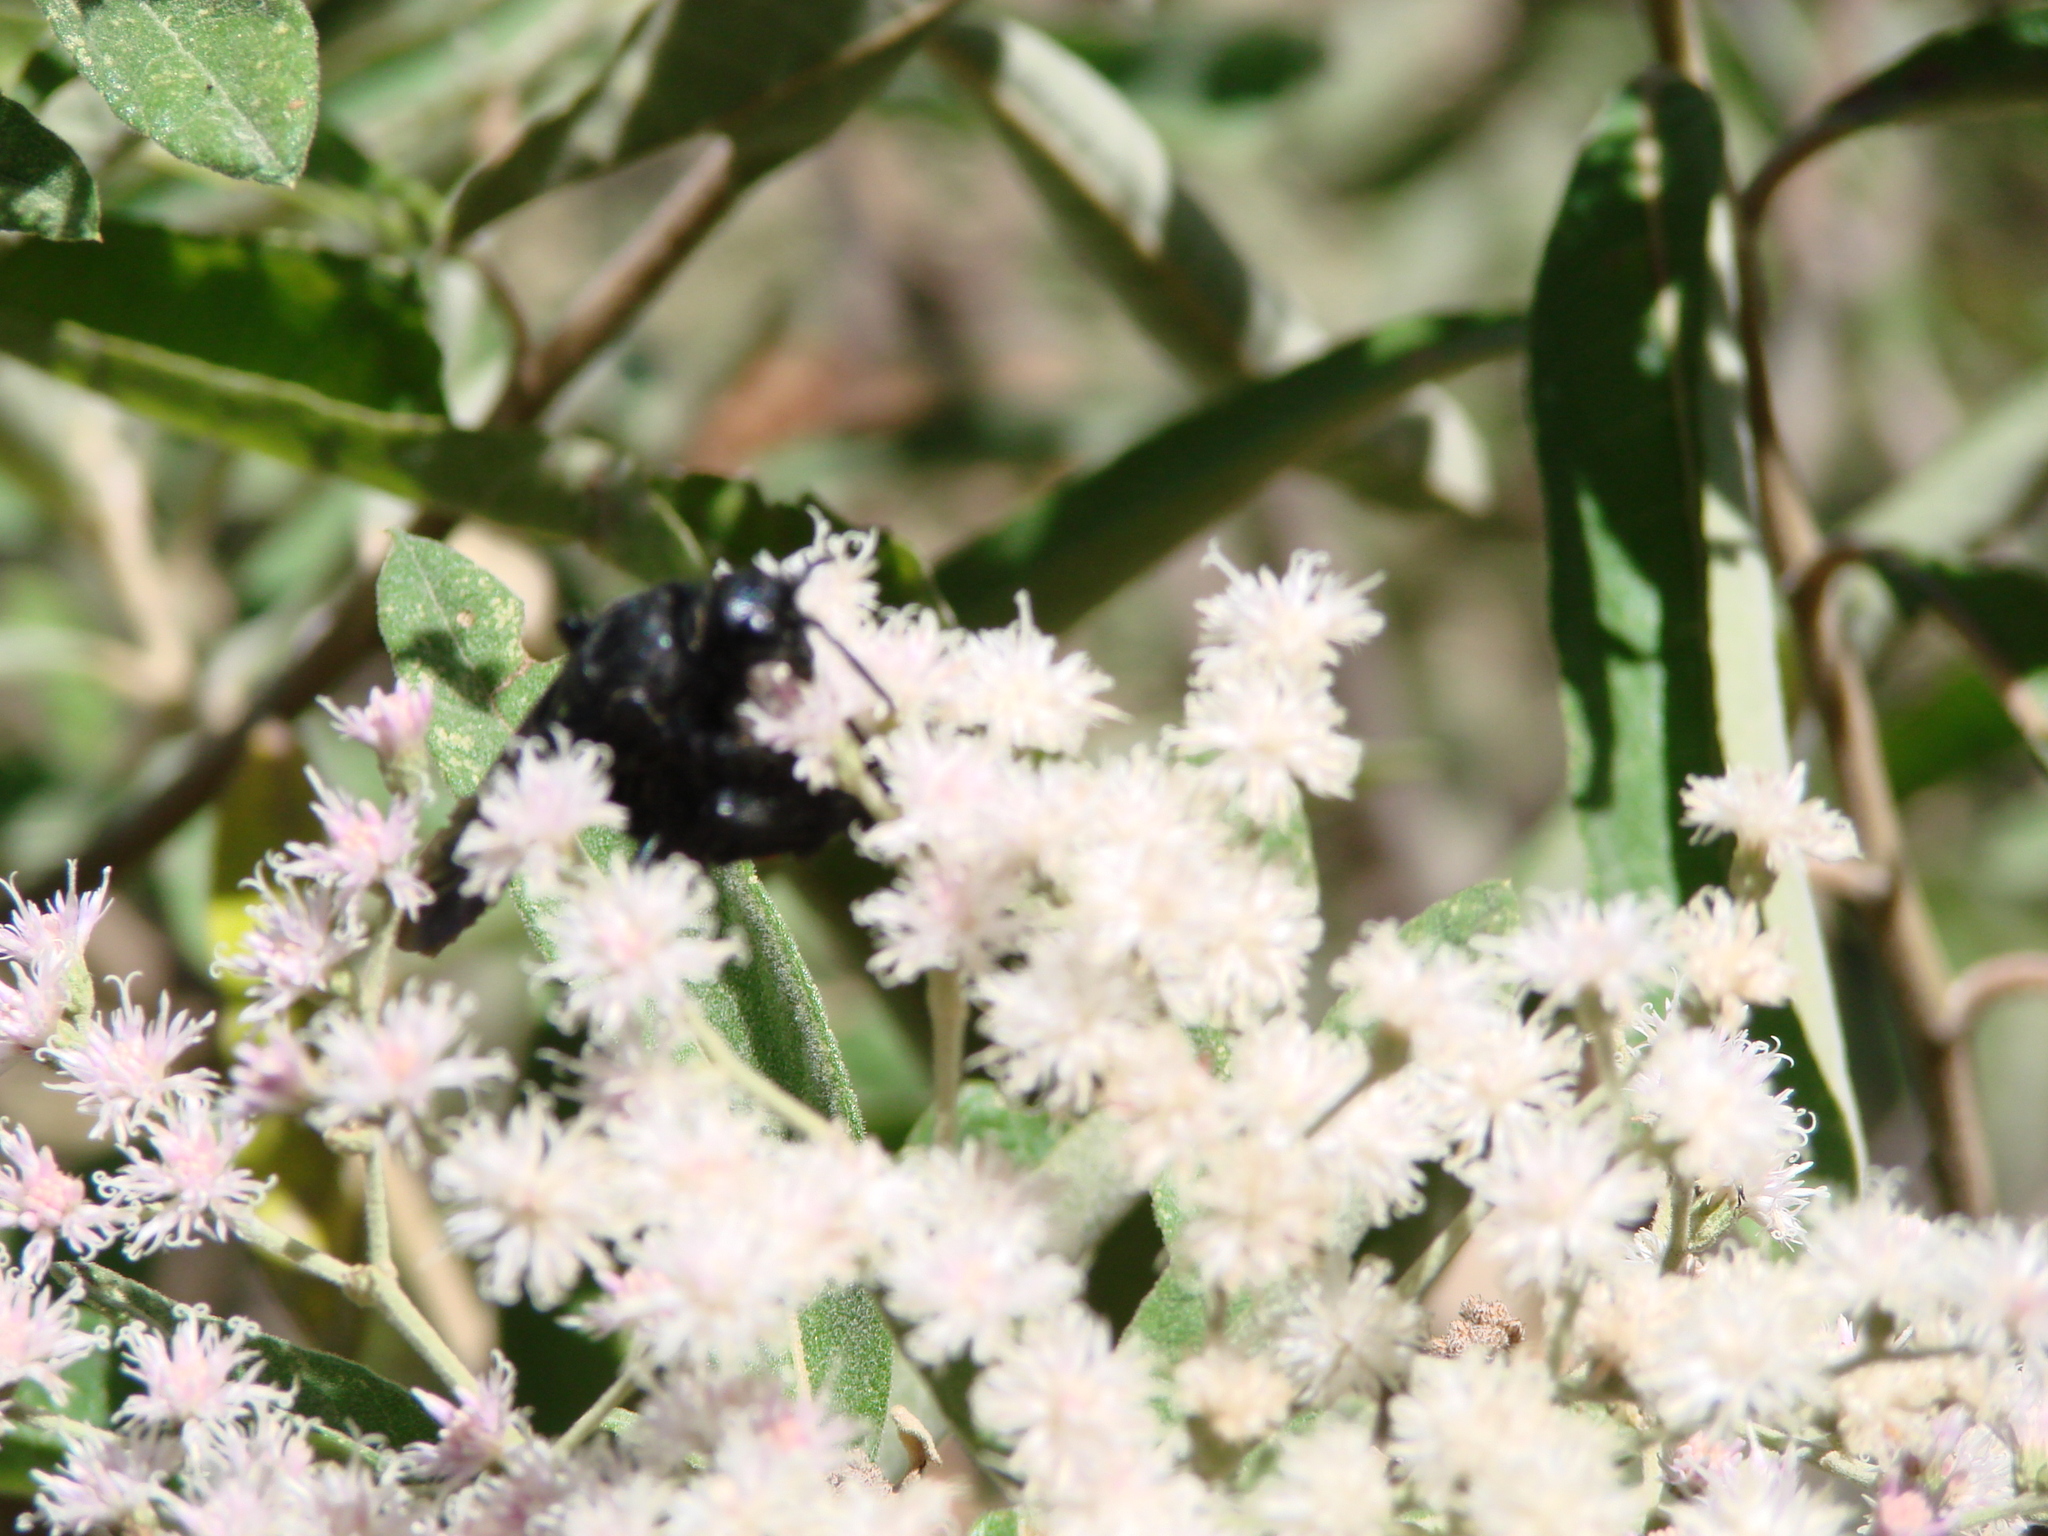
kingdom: Plantae
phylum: Tracheophyta
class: Magnoliopsida
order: Asterales
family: Asteraceae
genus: Cyrtocymura
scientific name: Cyrtocymura scorpioides
